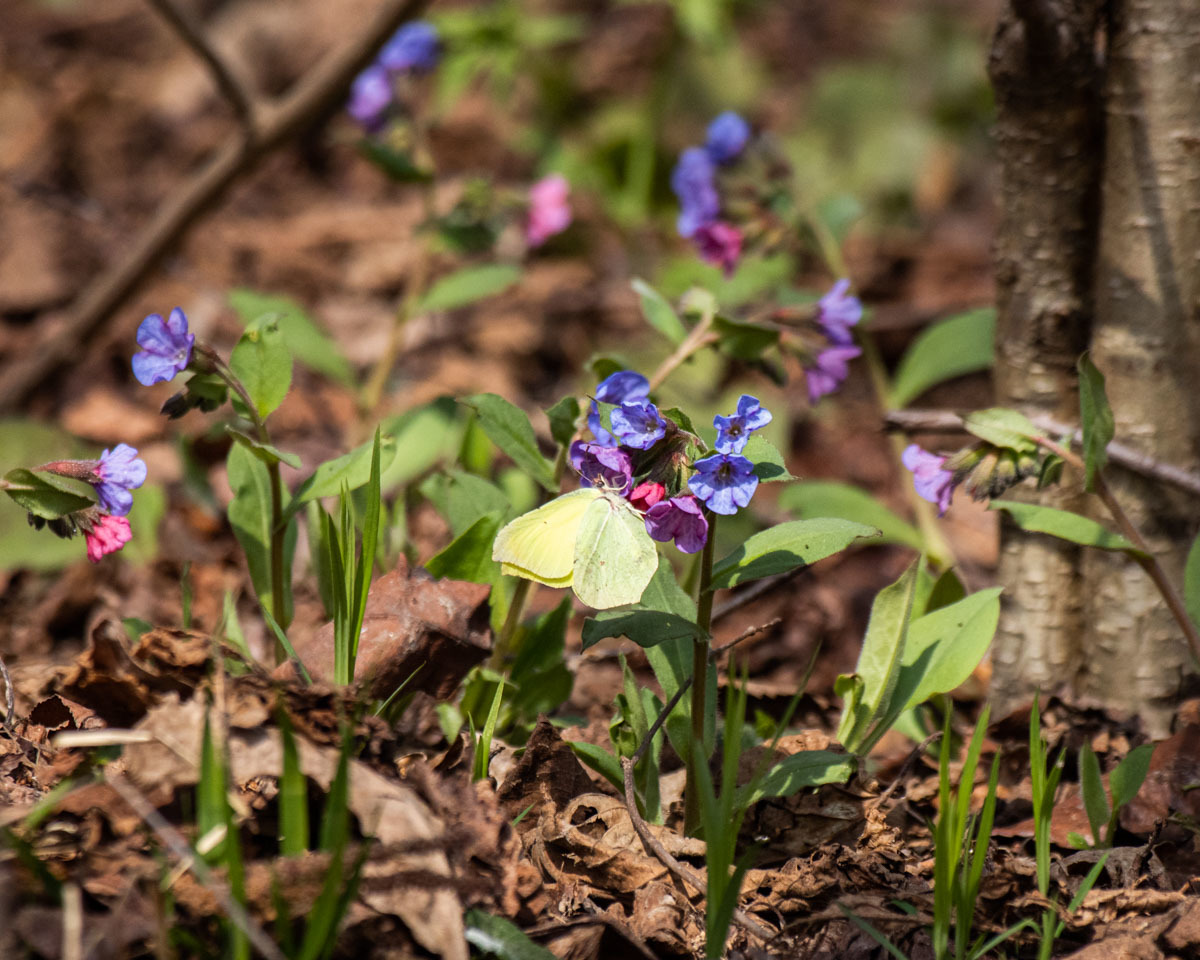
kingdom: Animalia
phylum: Arthropoda
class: Insecta
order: Lepidoptera
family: Pieridae
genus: Gonepteryx
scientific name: Gonepteryx rhamni
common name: Brimstone
